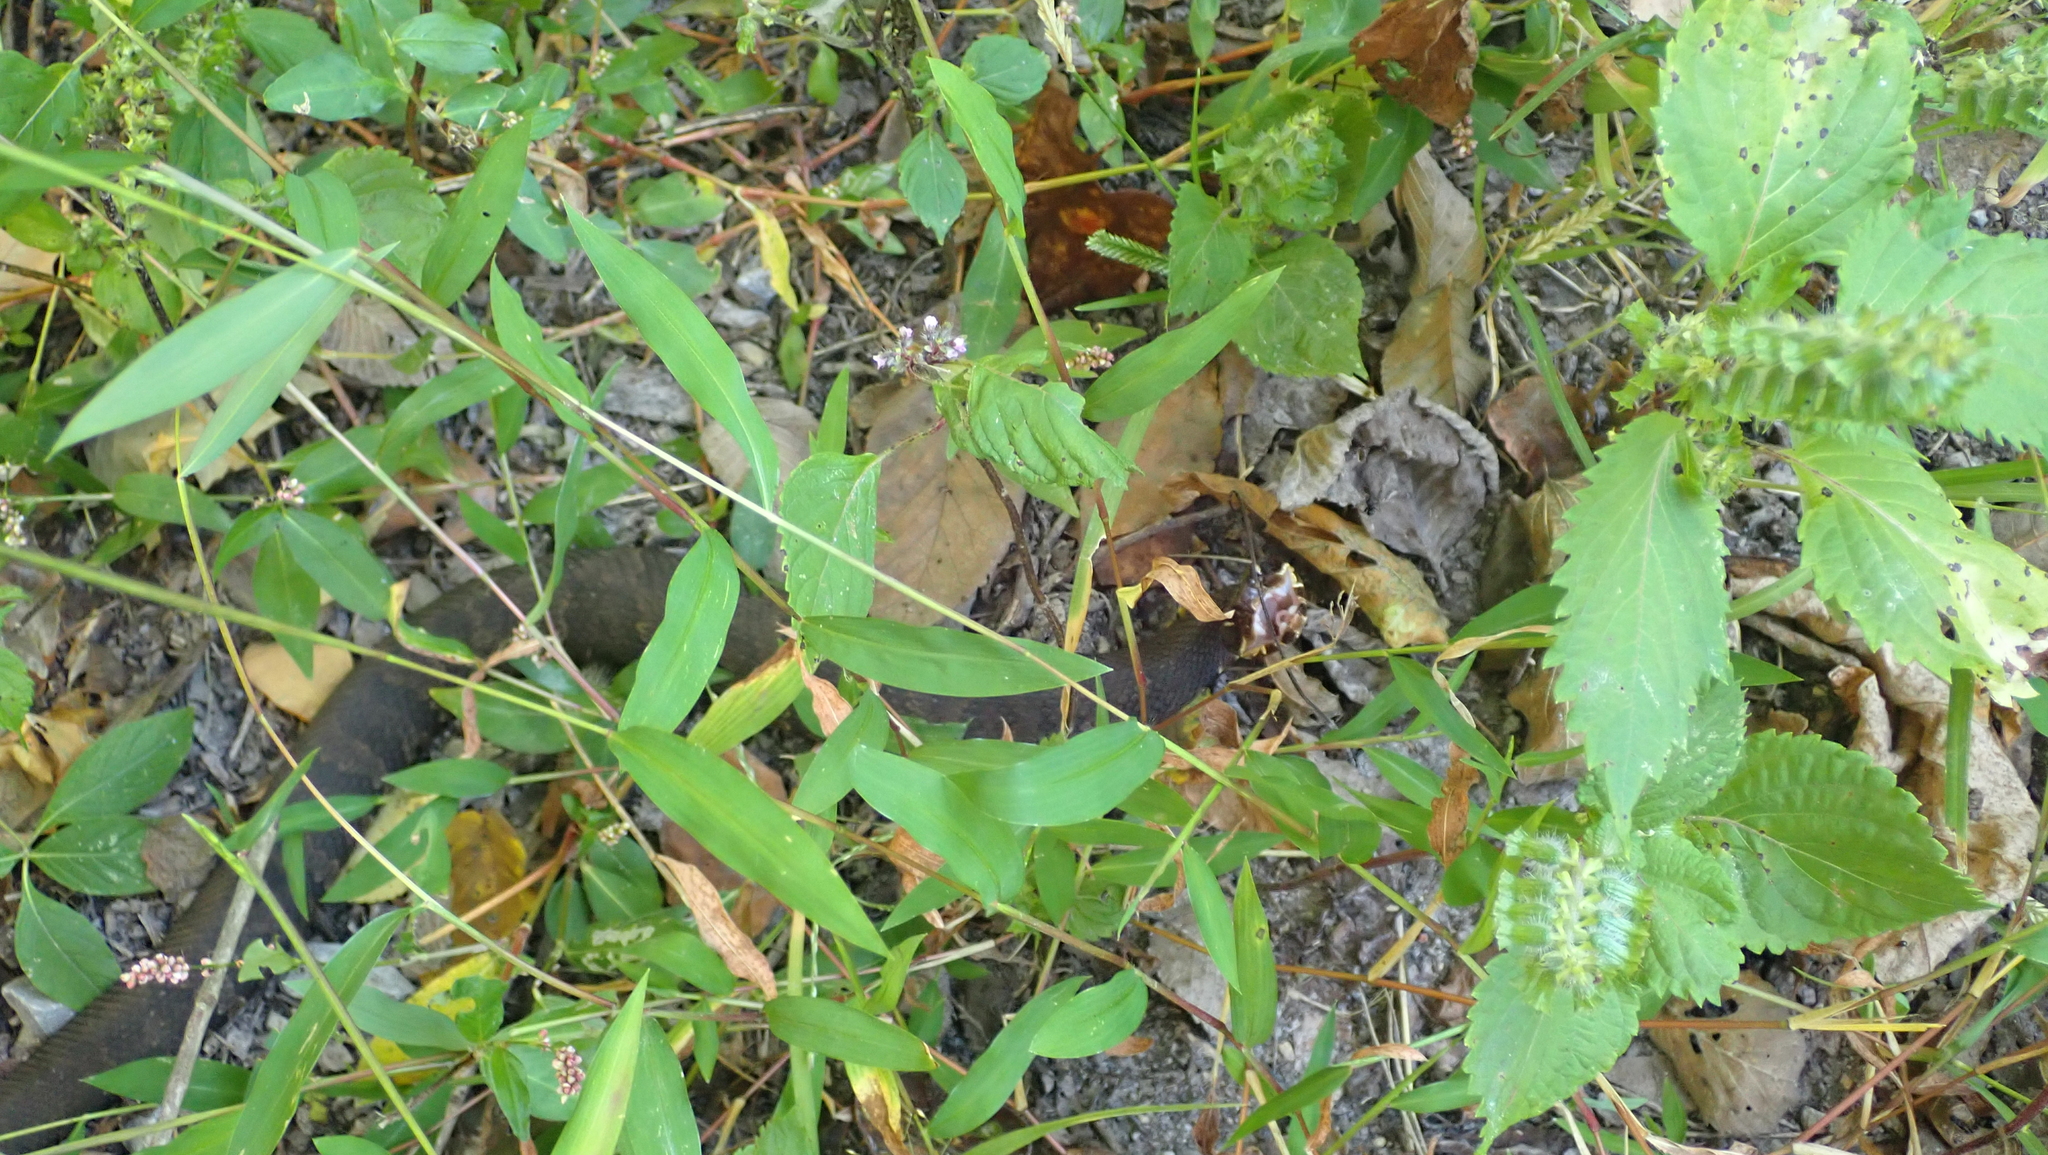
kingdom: Animalia
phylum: Chordata
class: Squamata
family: Viperidae
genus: Agkistrodon
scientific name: Agkistrodon piscivorus
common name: Cottonmouth
